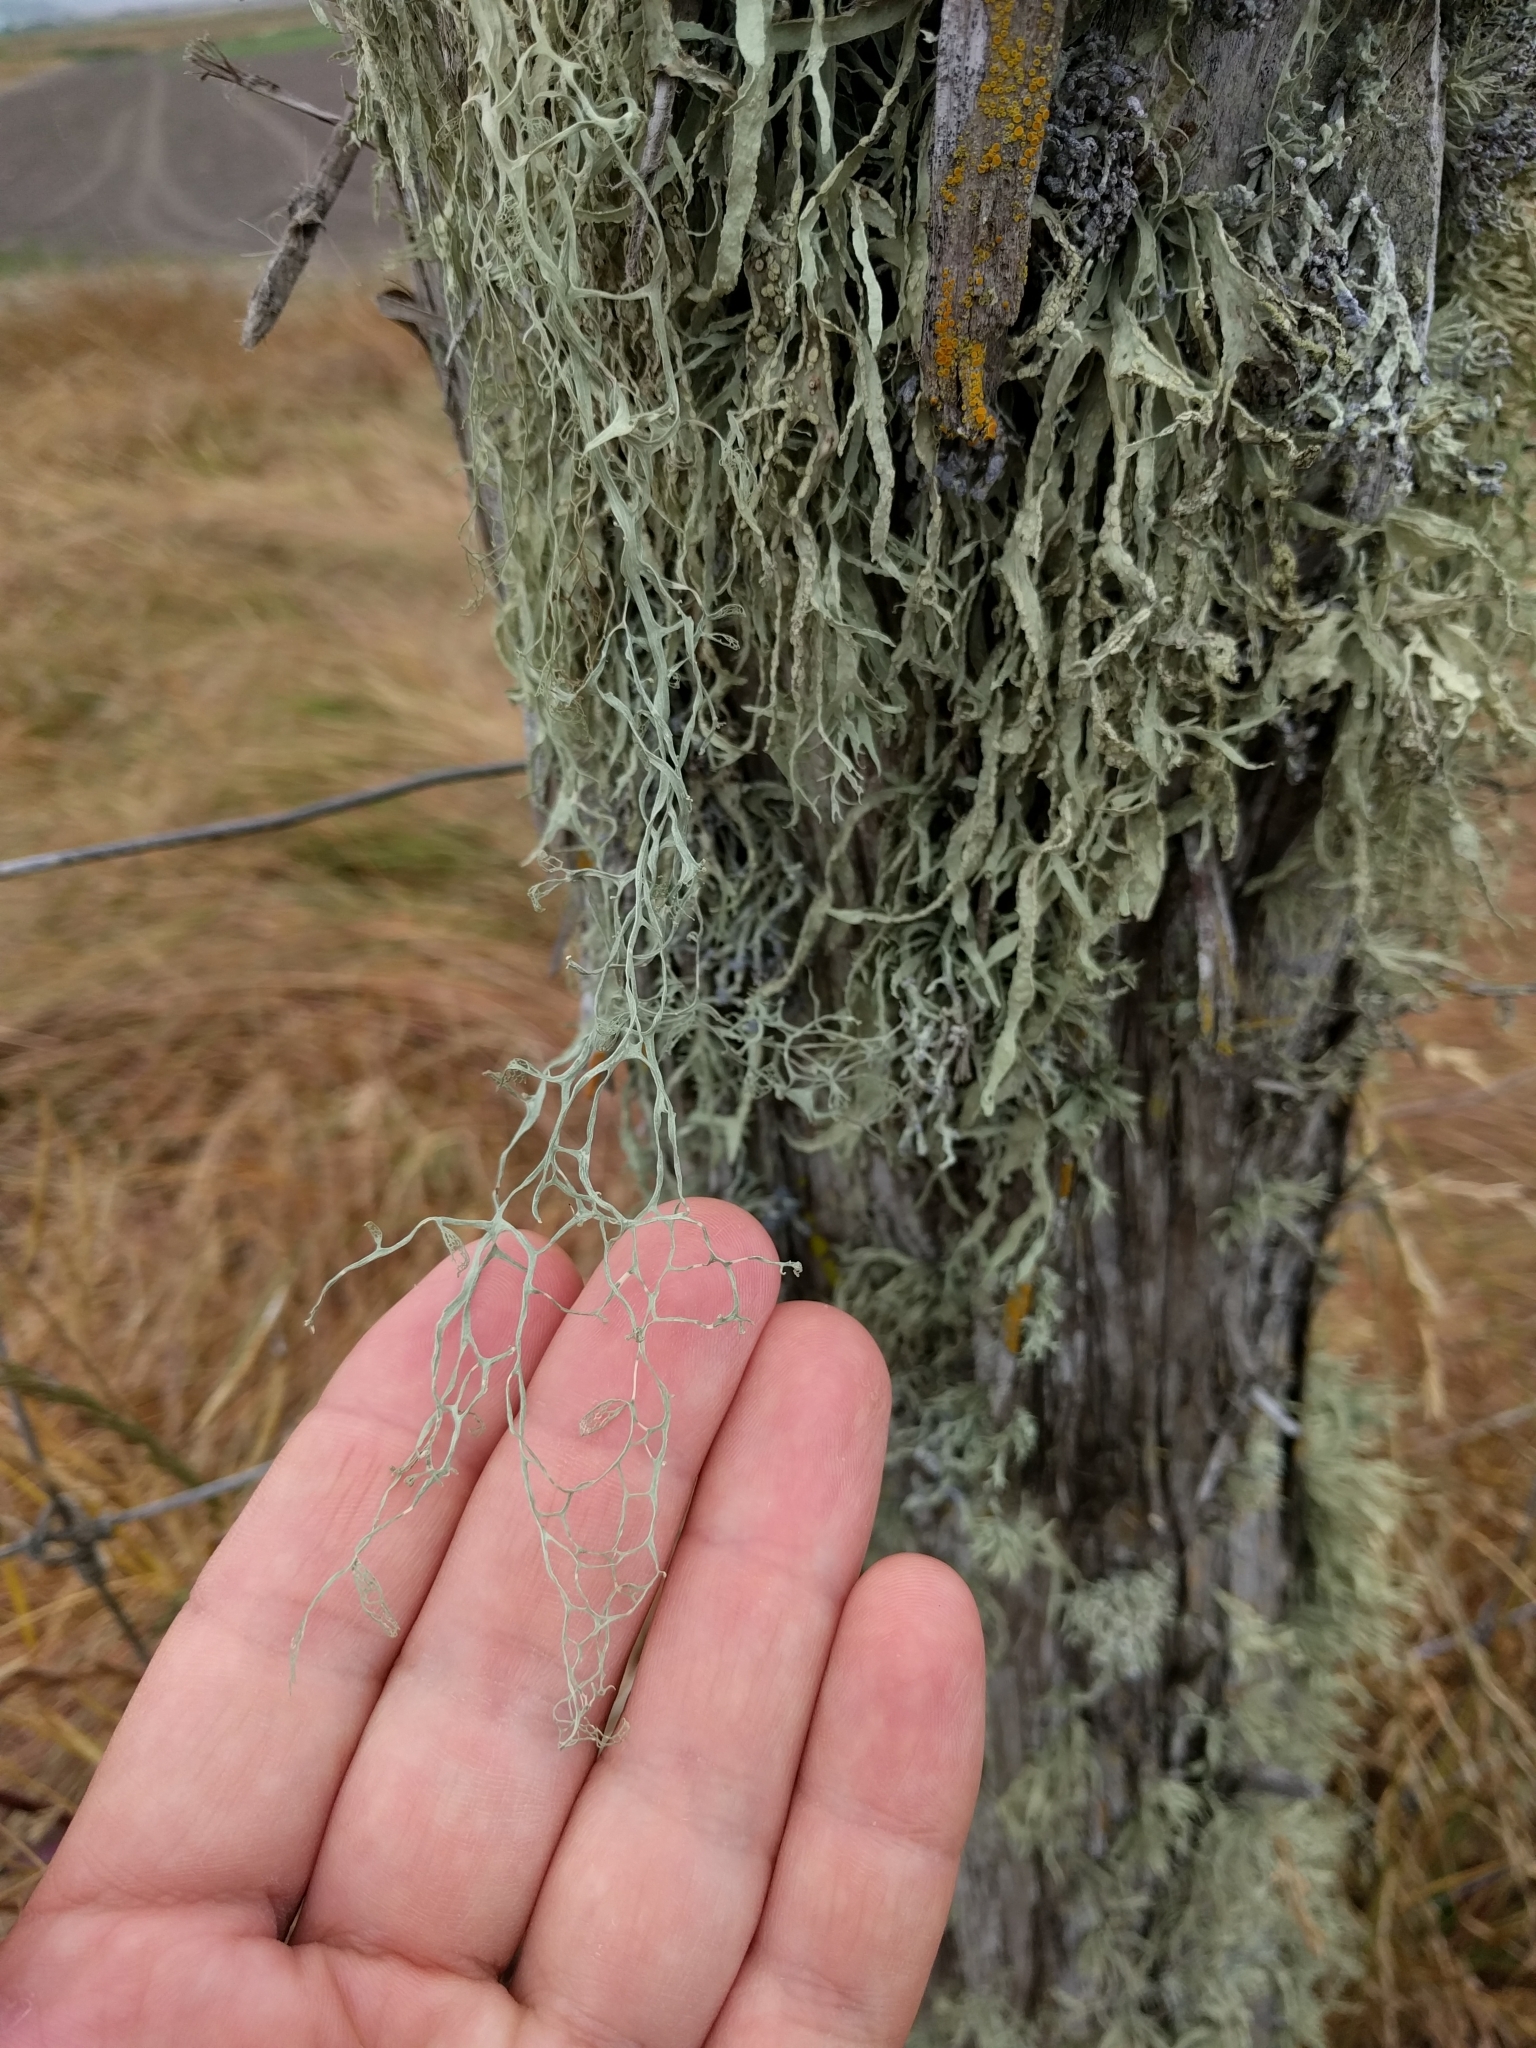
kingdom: Fungi
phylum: Ascomycota
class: Lecanoromycetes
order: Lecanorales
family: Ramalinaceae
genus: Ramalina
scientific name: Ramalina menziesii
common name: Lace lichen
